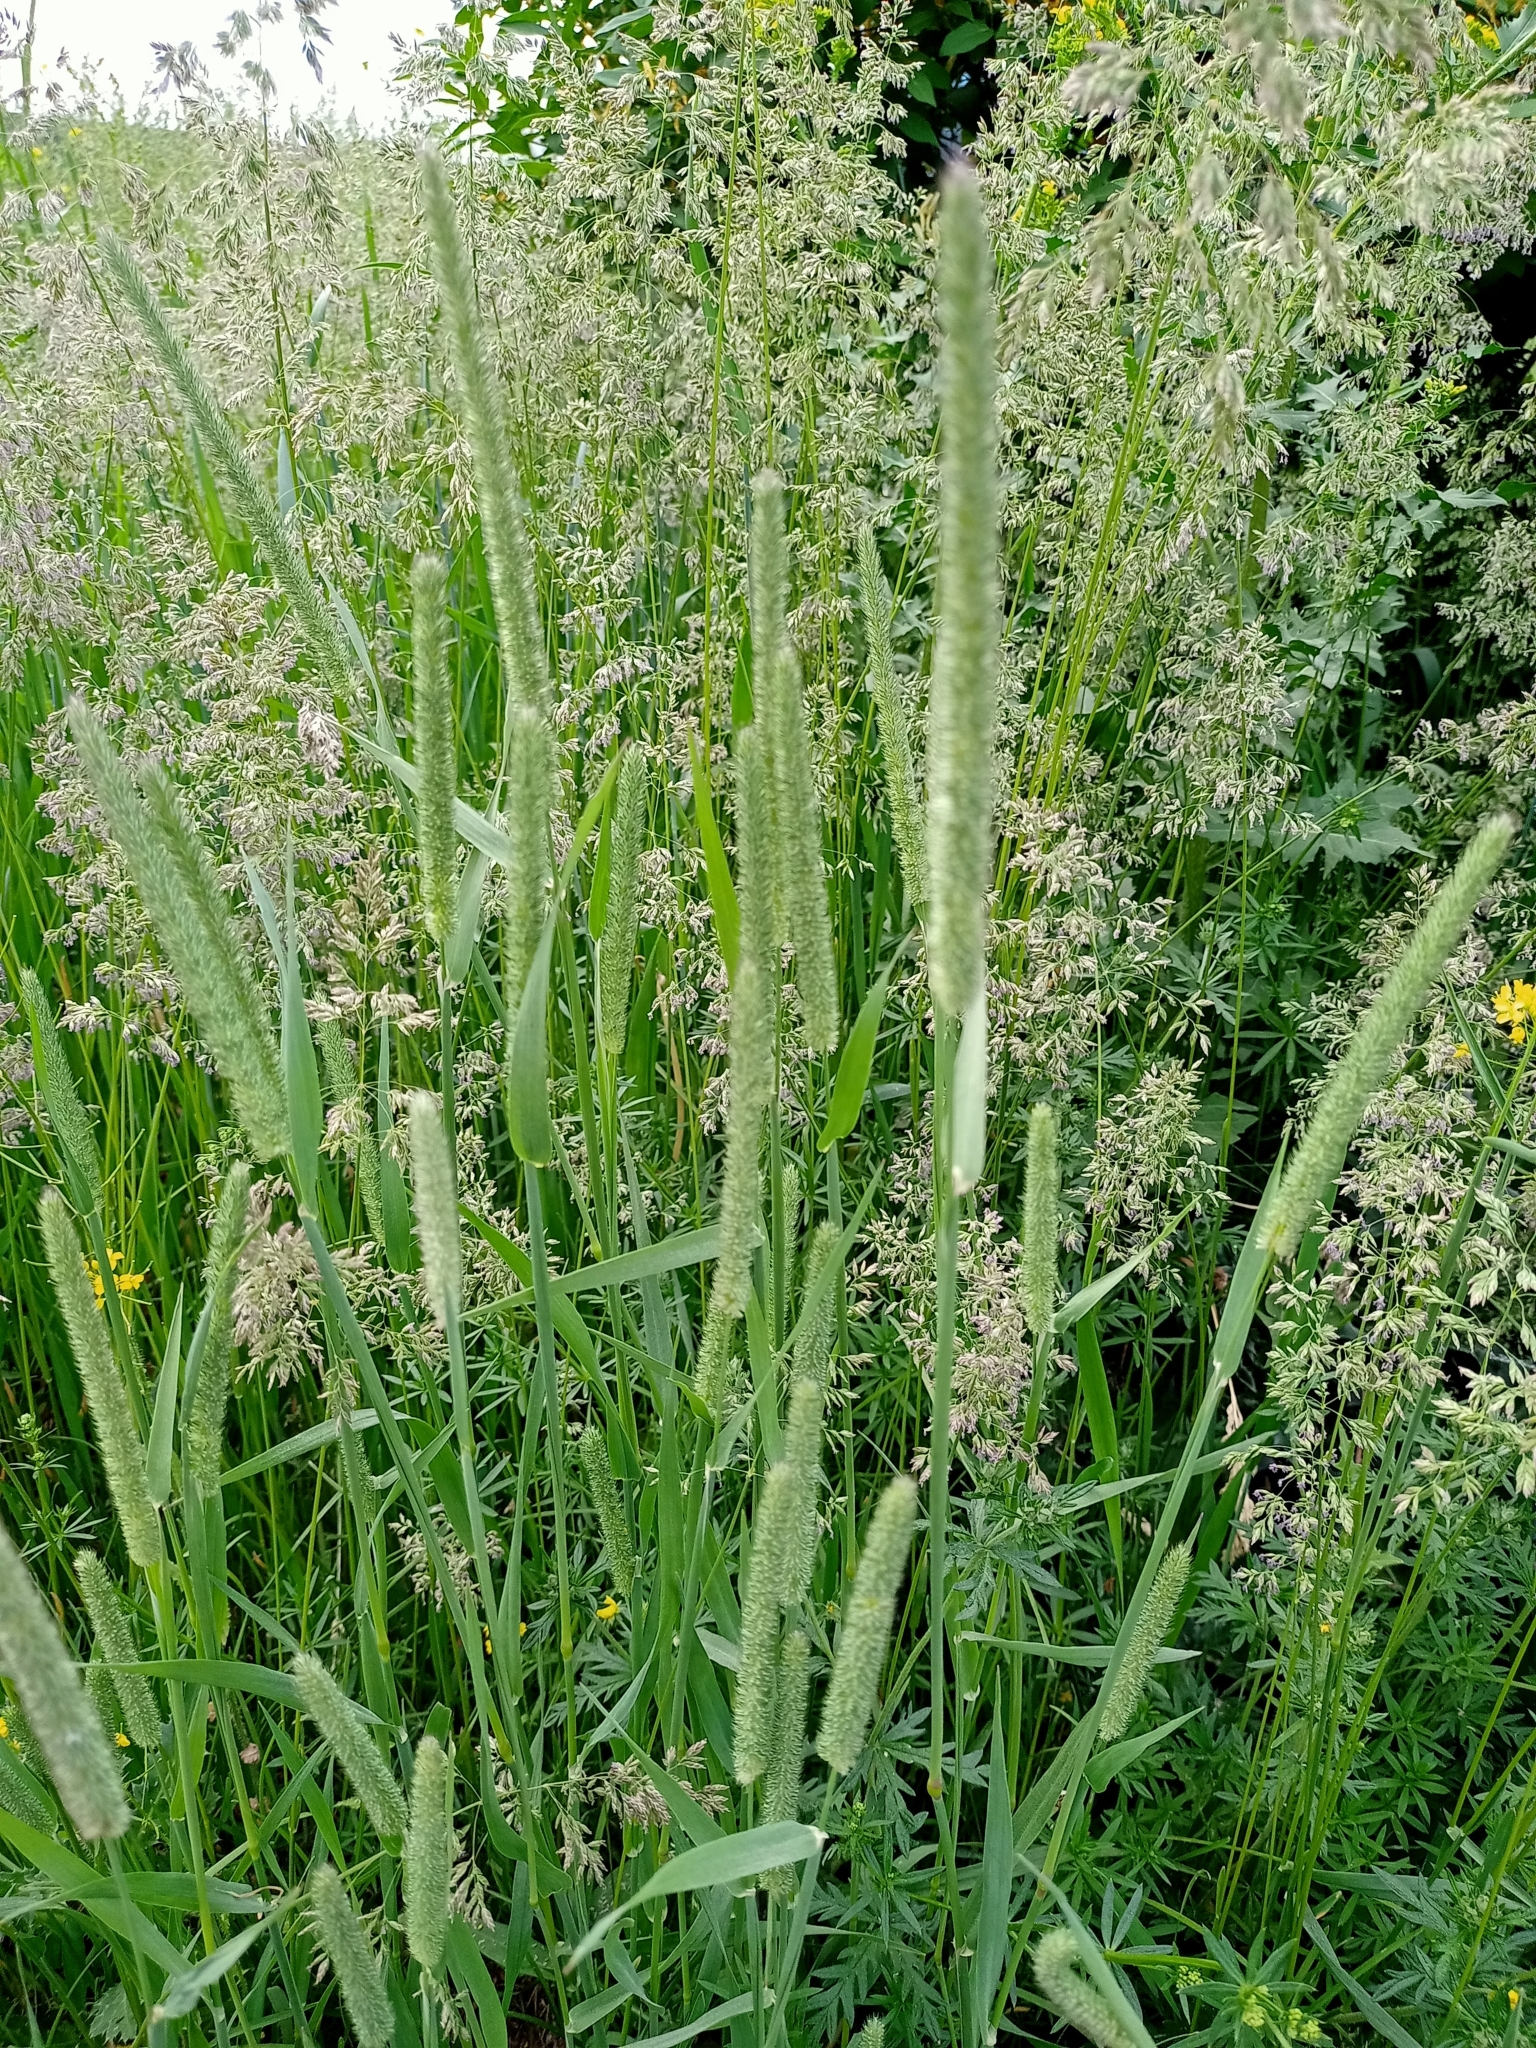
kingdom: Plantae
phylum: Tracheophyta
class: Liliopsida
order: Poales
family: Poaceae
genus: Phleum
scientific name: Phleum pratense
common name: Timothy grass
